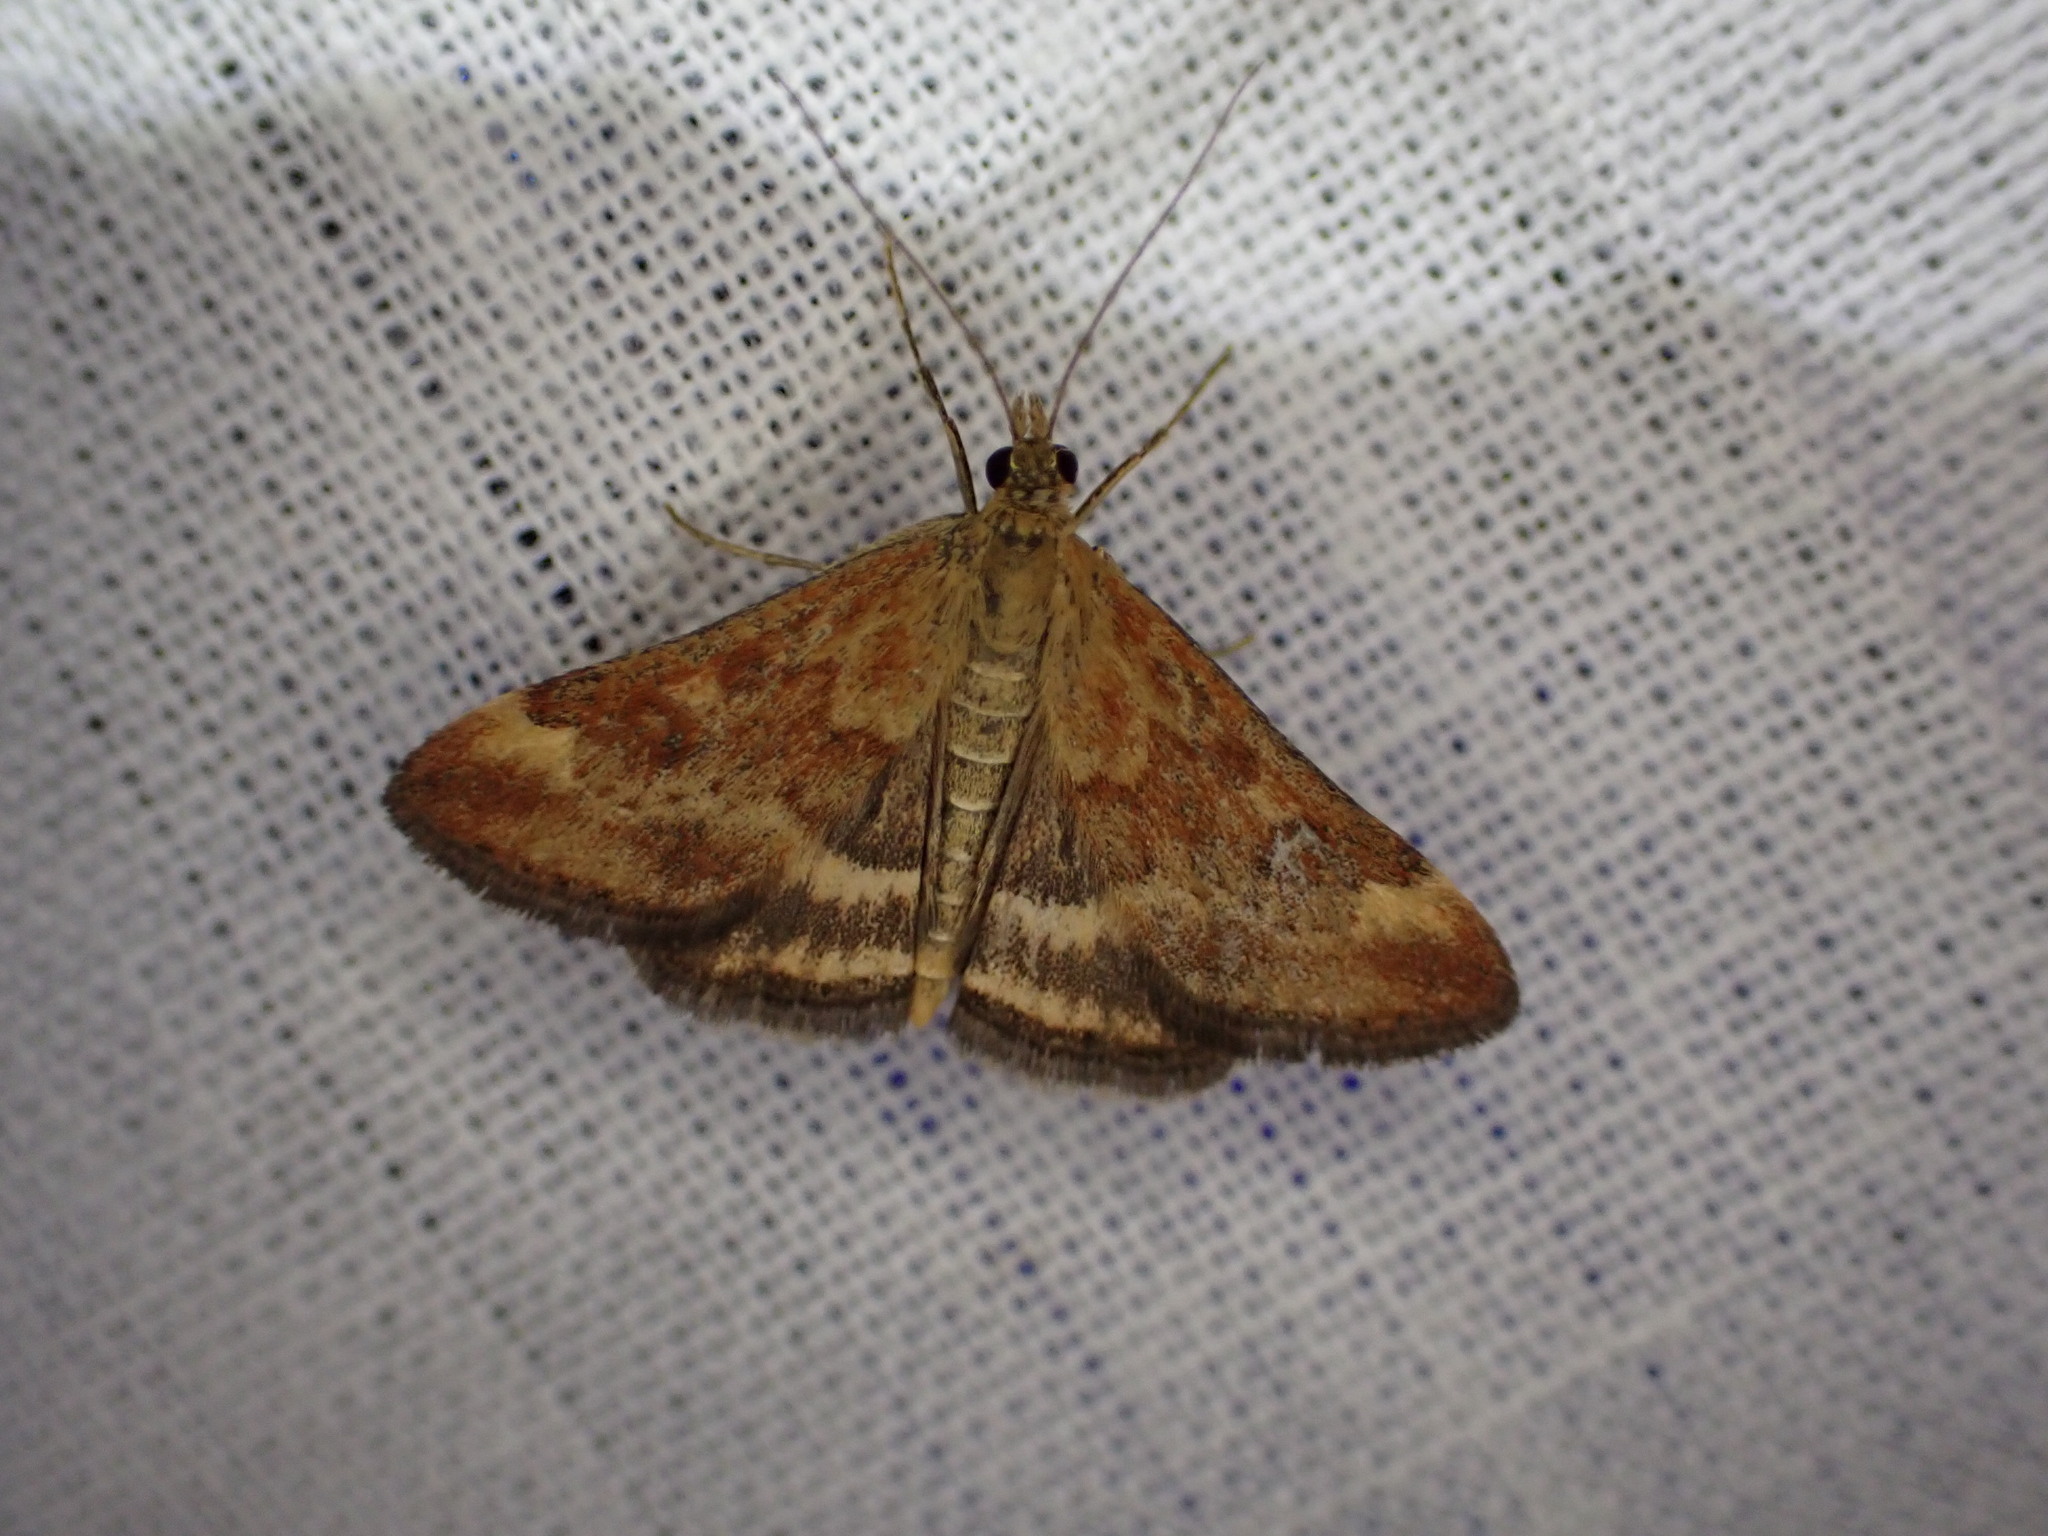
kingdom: Animalia
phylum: Arthropoda
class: Insecta
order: Lepidoptera
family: Crambidae
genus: Pyrausta
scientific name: Pyrausta despicata
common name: Straw-barred pearl
